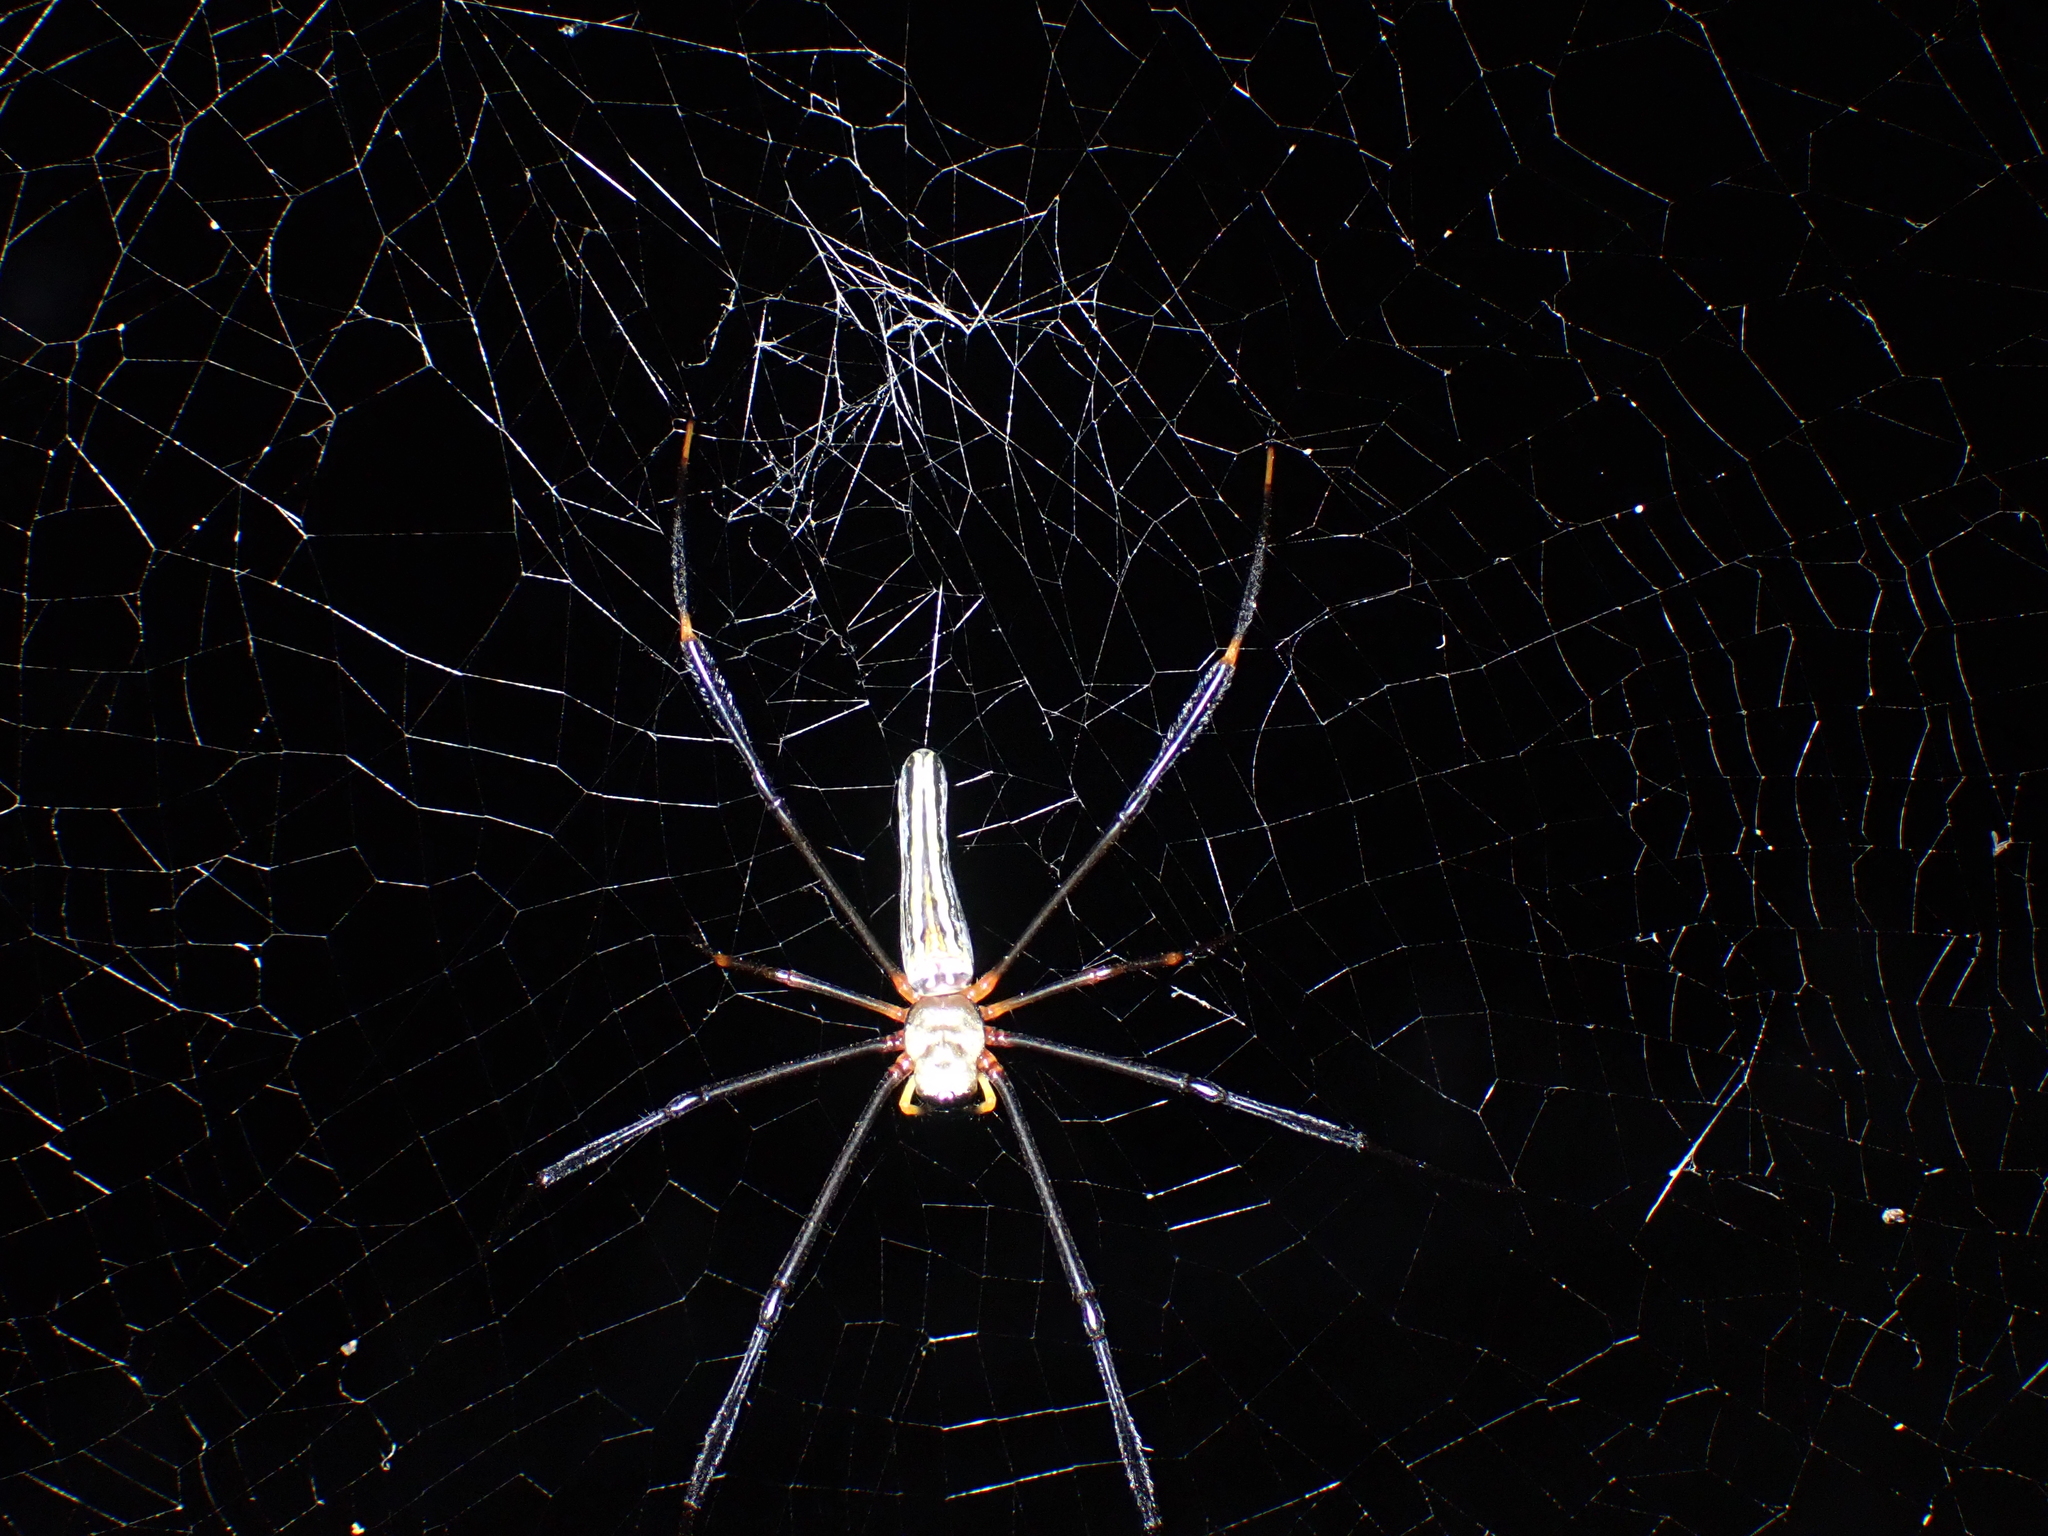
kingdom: Animalia
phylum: Arthropoda
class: Arachnida
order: Araneae
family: Araneidae
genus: Nephila
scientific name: Nephila pilipes
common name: Giant golden orb weaver
